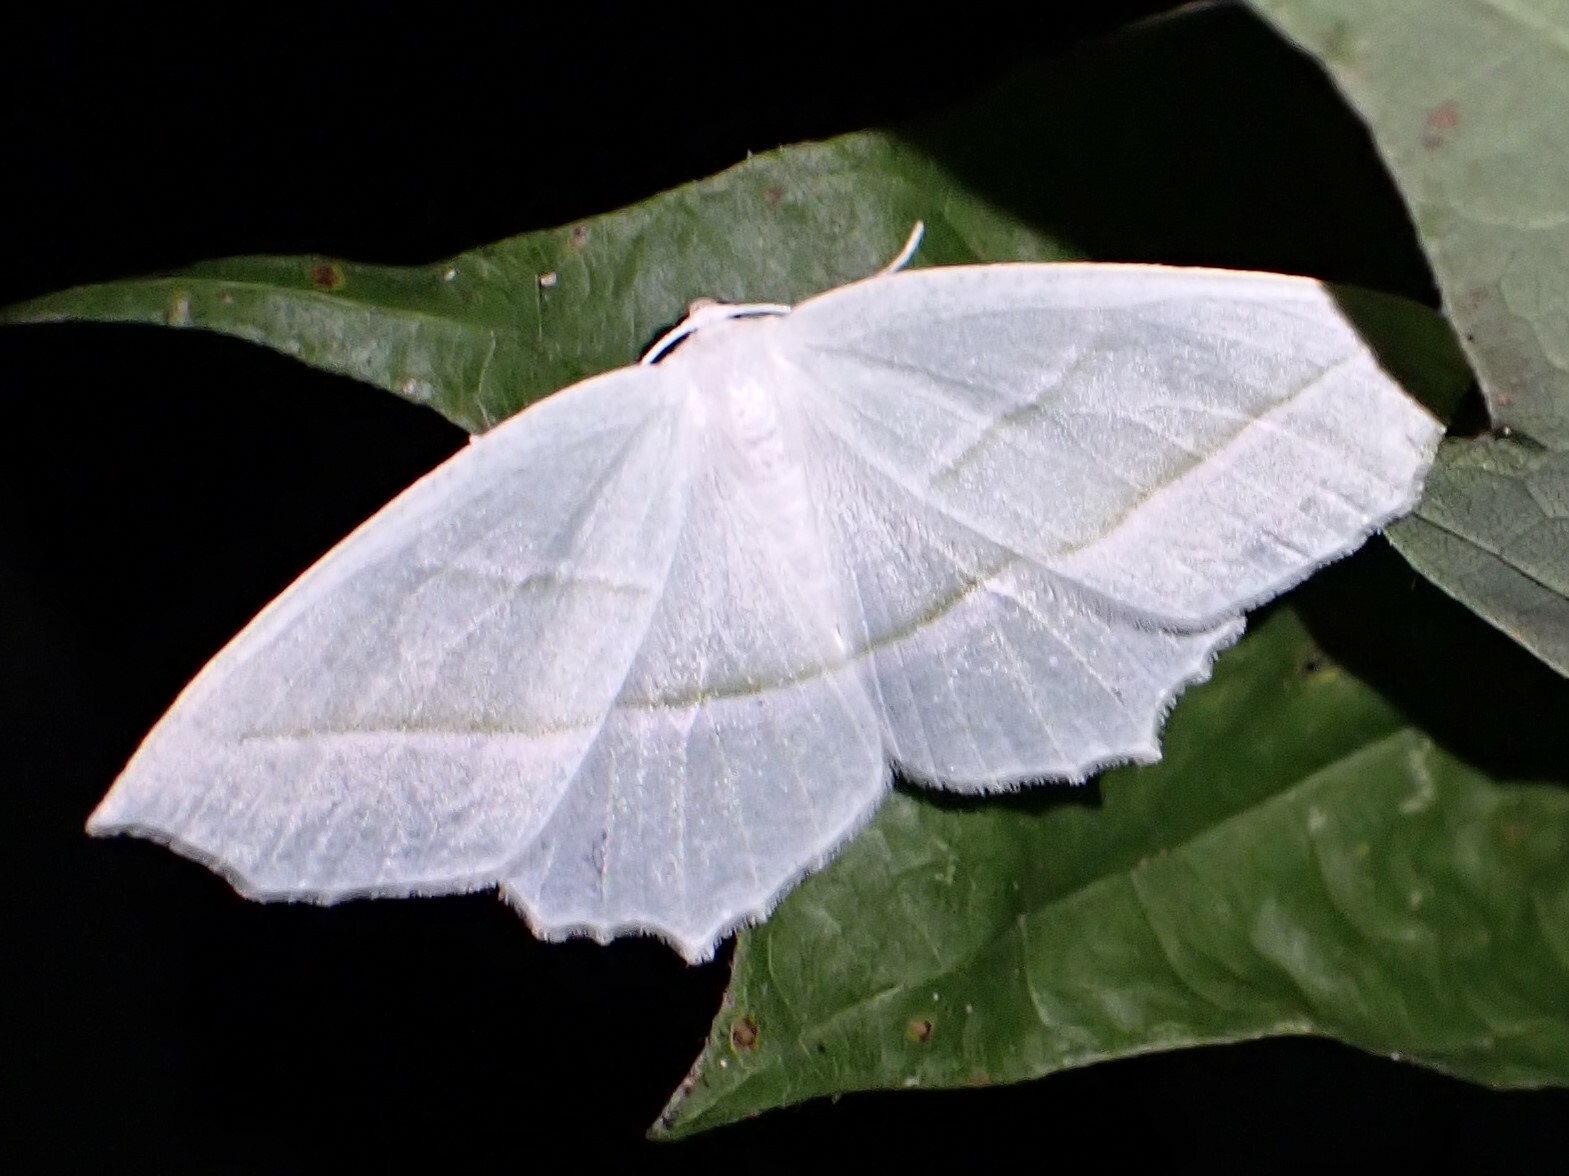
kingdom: Animalia
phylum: Arthropoda
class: Insecta
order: Lepidoptera
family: Geometridae
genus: Campaea
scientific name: Campaea perlata
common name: Fringed looper
